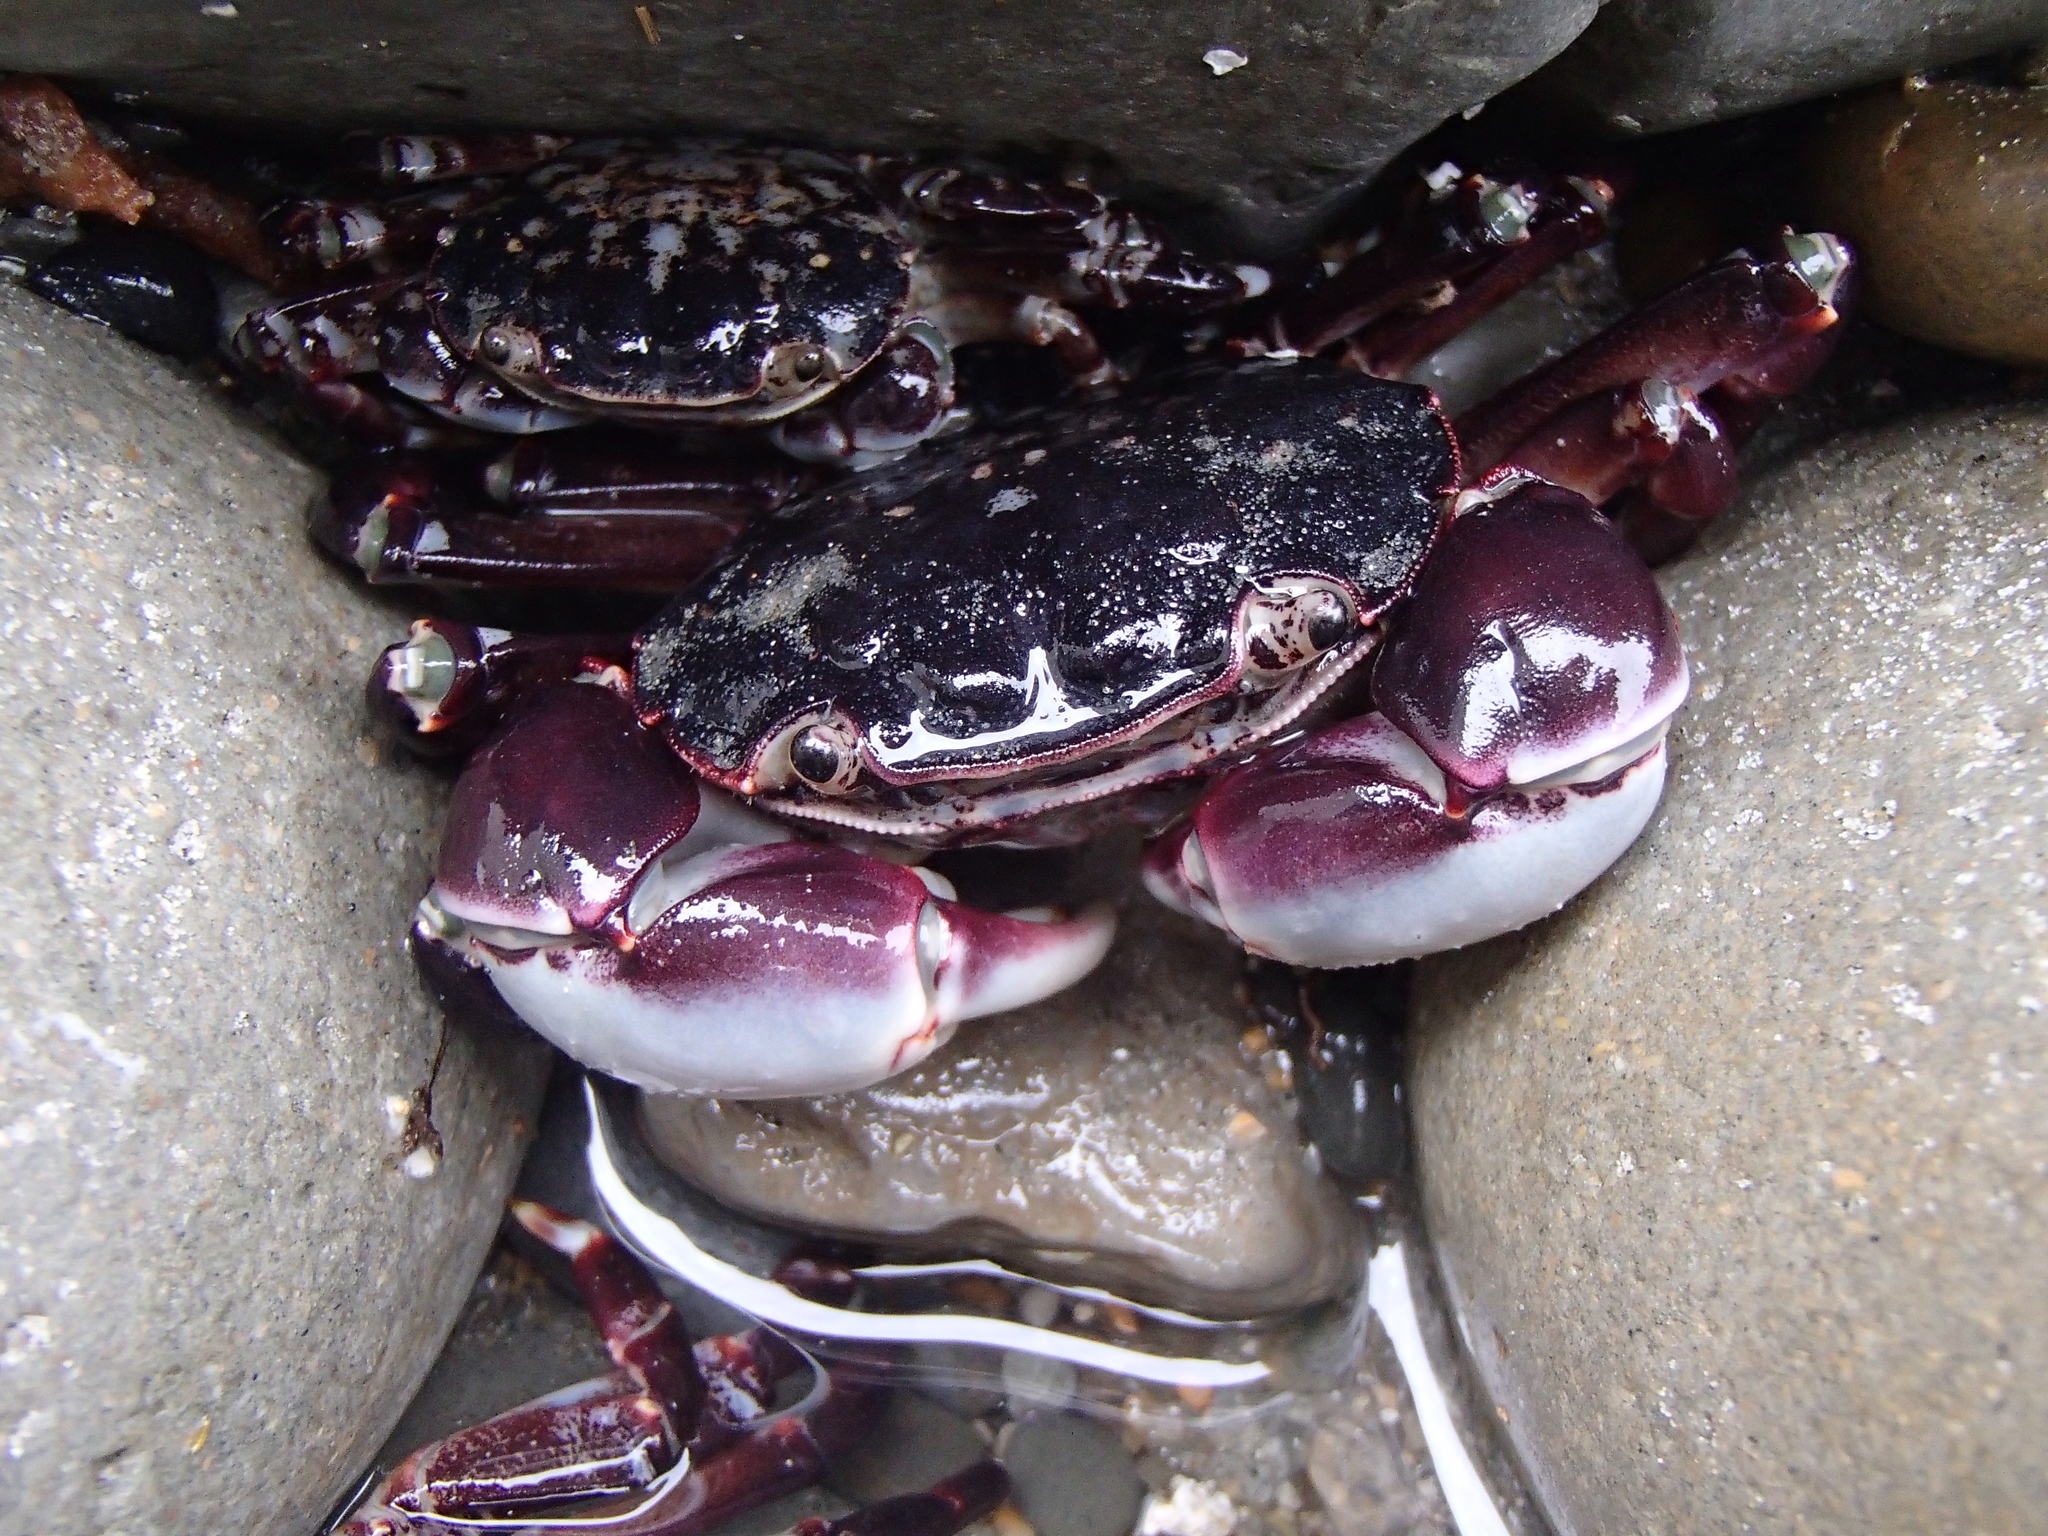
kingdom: Animalia
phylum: Arthropoda
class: Malacostraca
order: Decapoda
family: Varunidae
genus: Hemigrapsus
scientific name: Hemigrapsus sexdentatus
